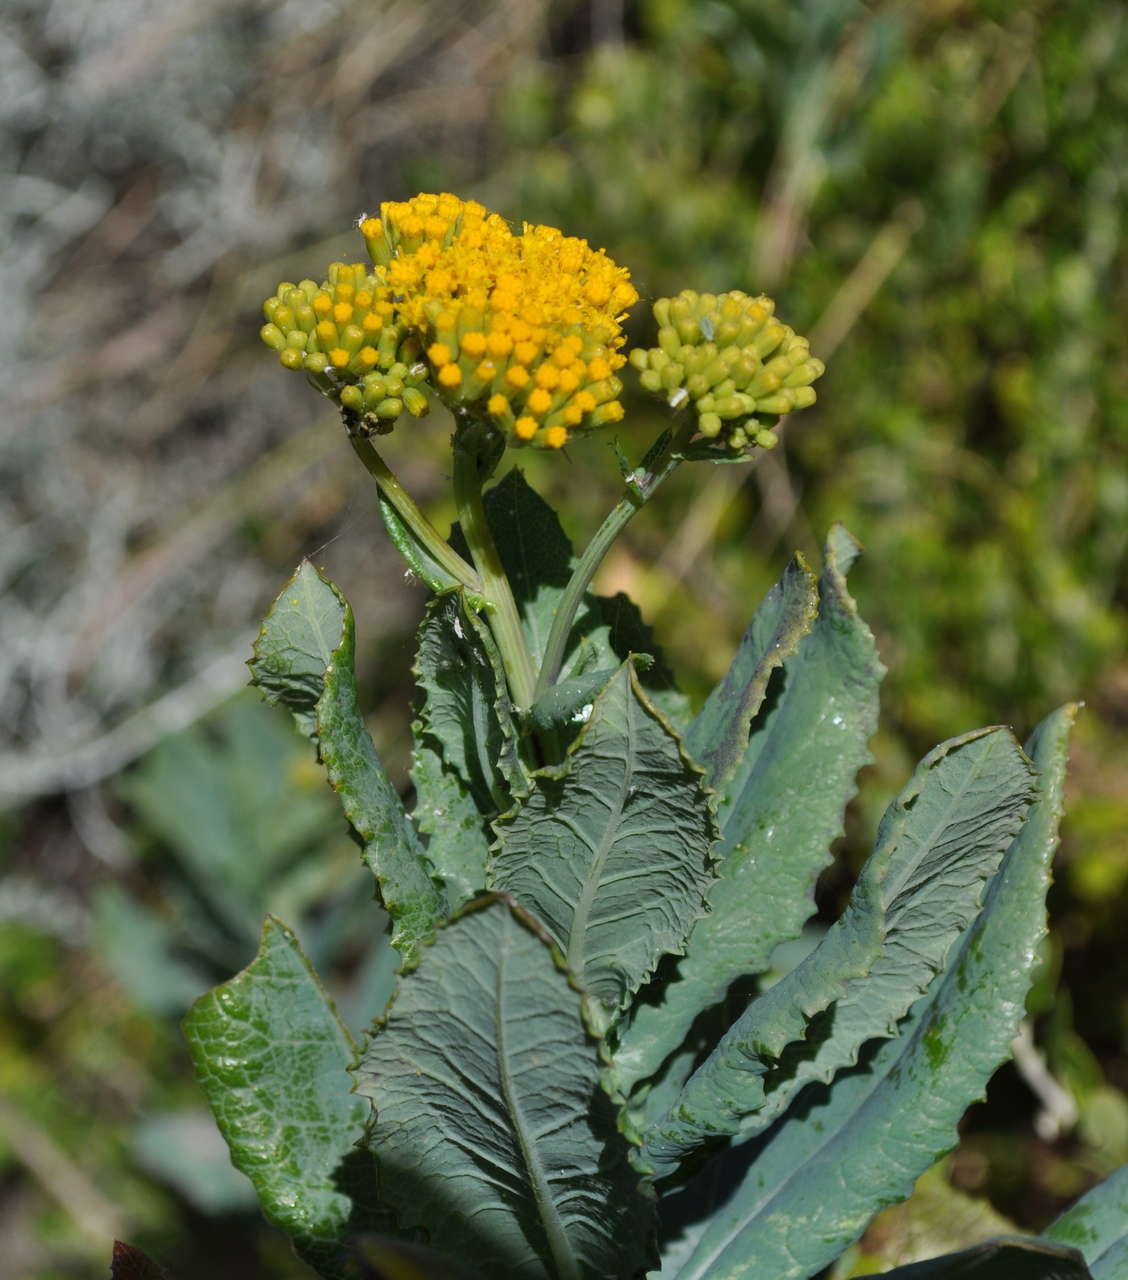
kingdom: Plantae
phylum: Tracheophyta
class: Magnoliopsida
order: Asterales
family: Asteraceae
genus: Senecio
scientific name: Senecio odoratus
